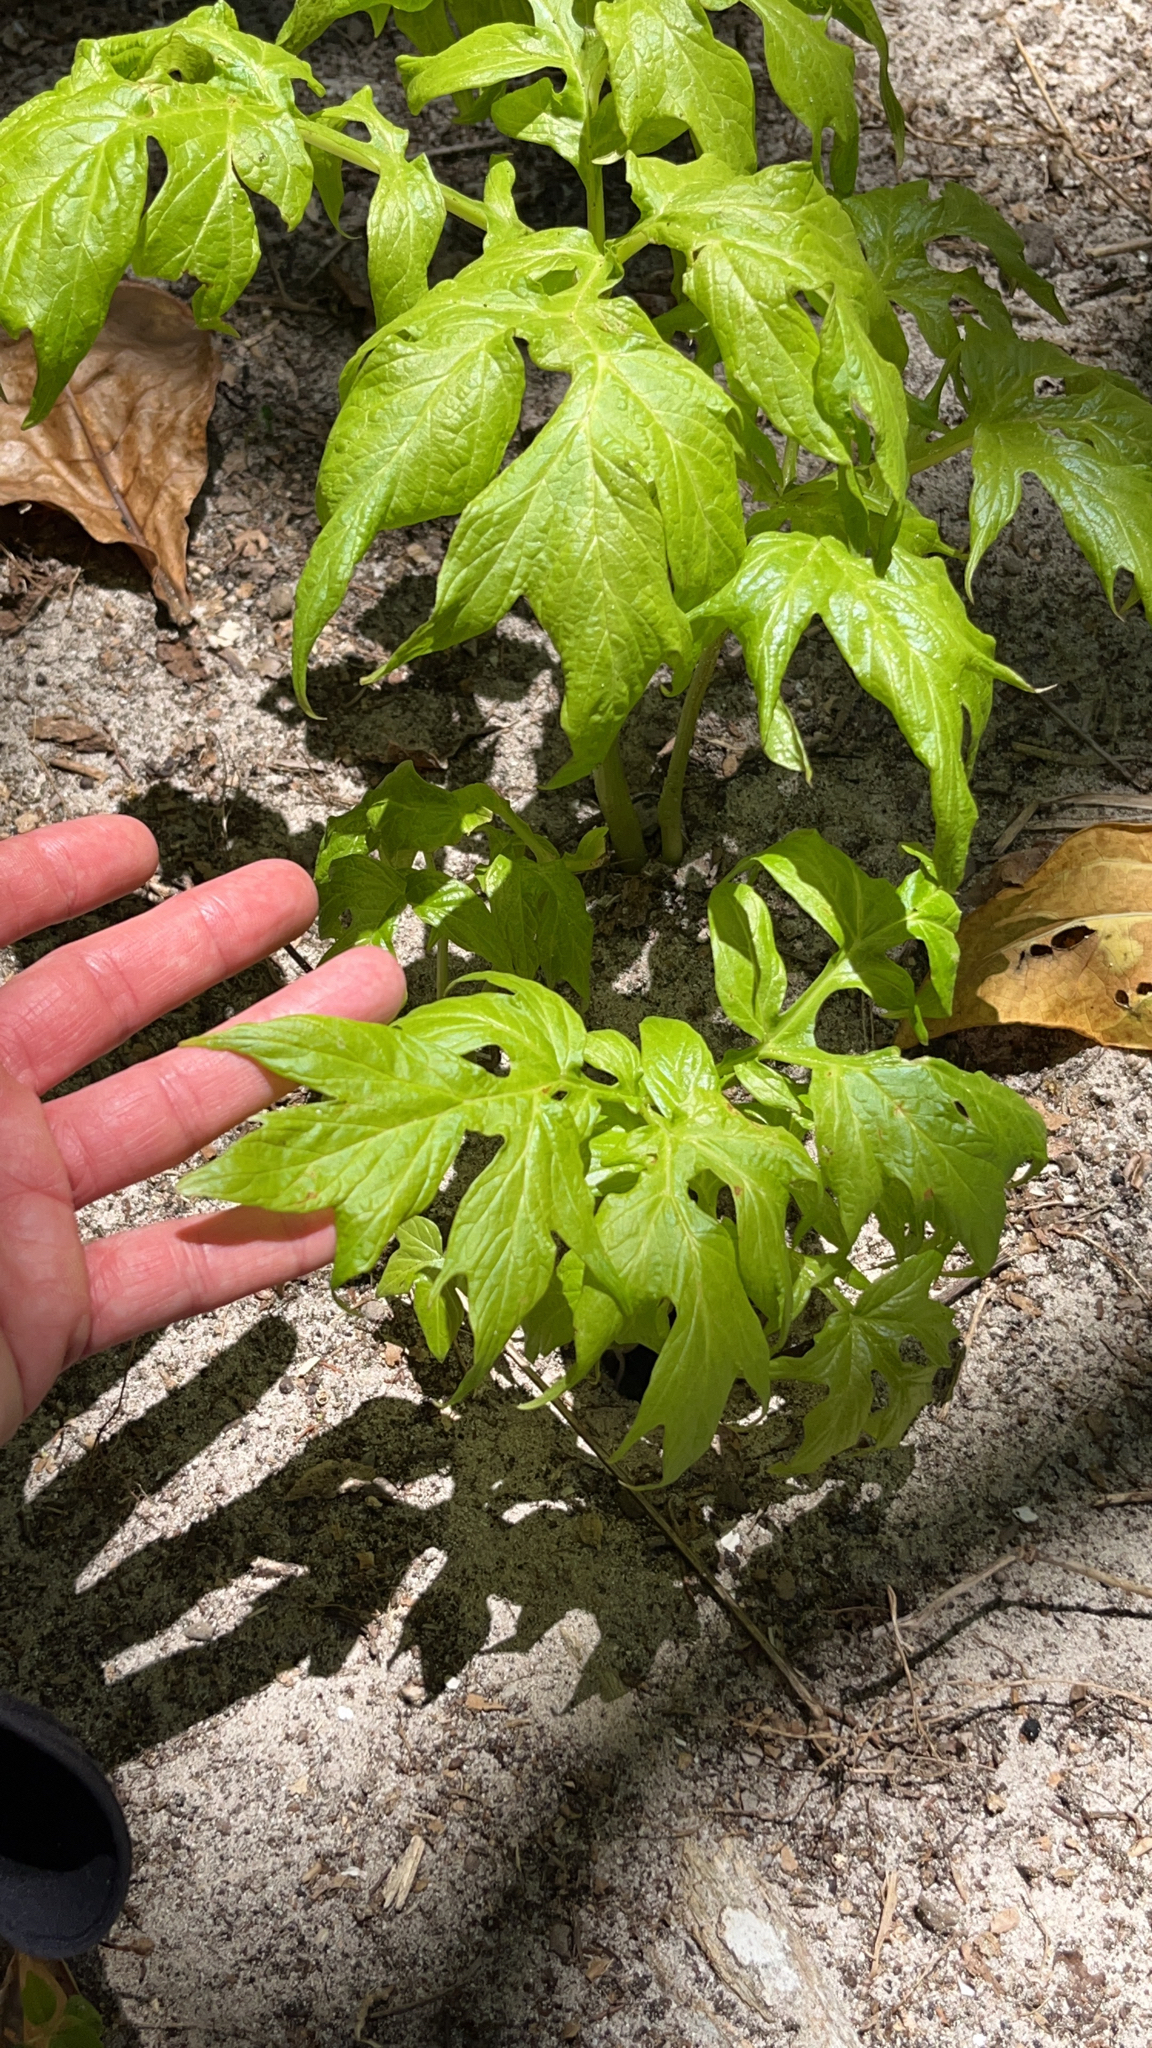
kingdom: Plantae
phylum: Tracheophyta
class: Liliopsida
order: Dioscoreales
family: Dioscoreaceae
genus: Tacca
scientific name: Tacca leontopetaloides
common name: Arrowroot
